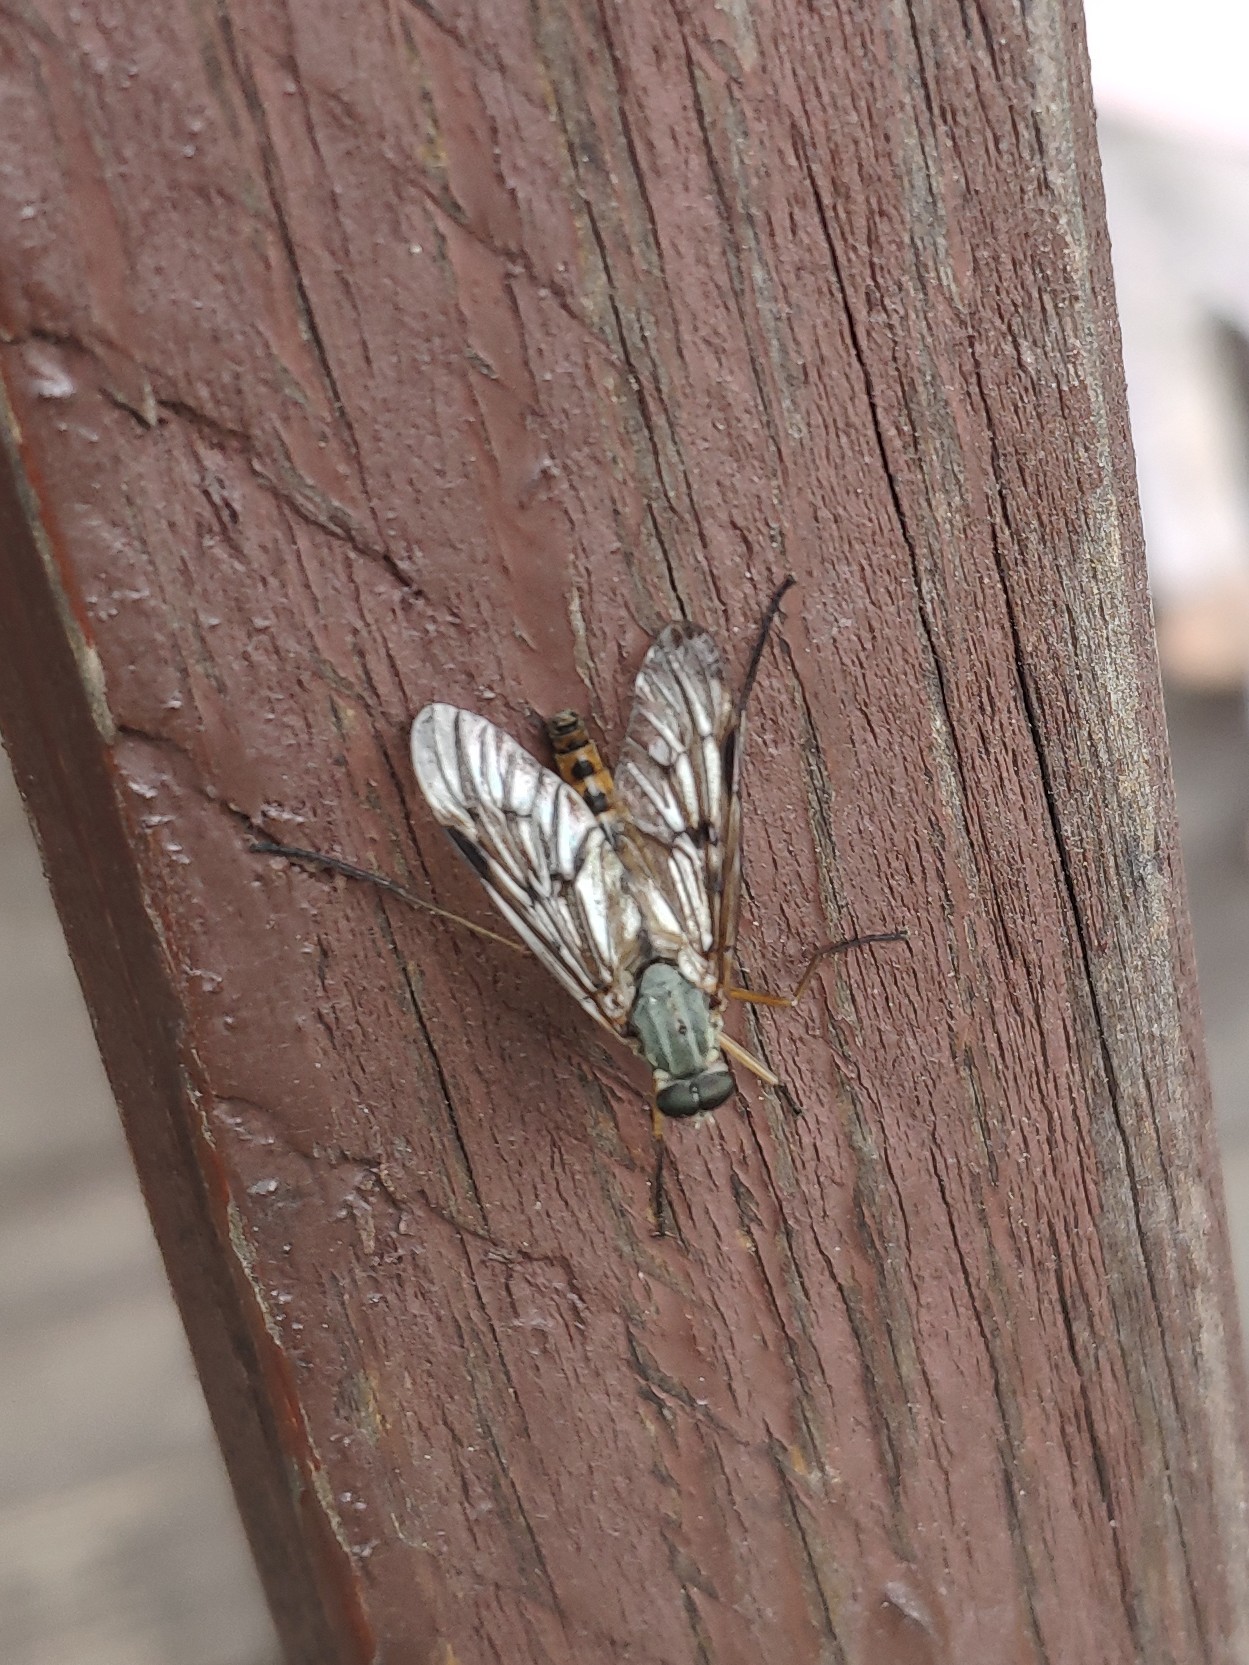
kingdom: Animalia
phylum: Arthropoda
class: Insecta
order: Diptera
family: Rhagionidae
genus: Rhagio
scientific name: Rhagio scolopacea
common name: Downlooker snipefly
